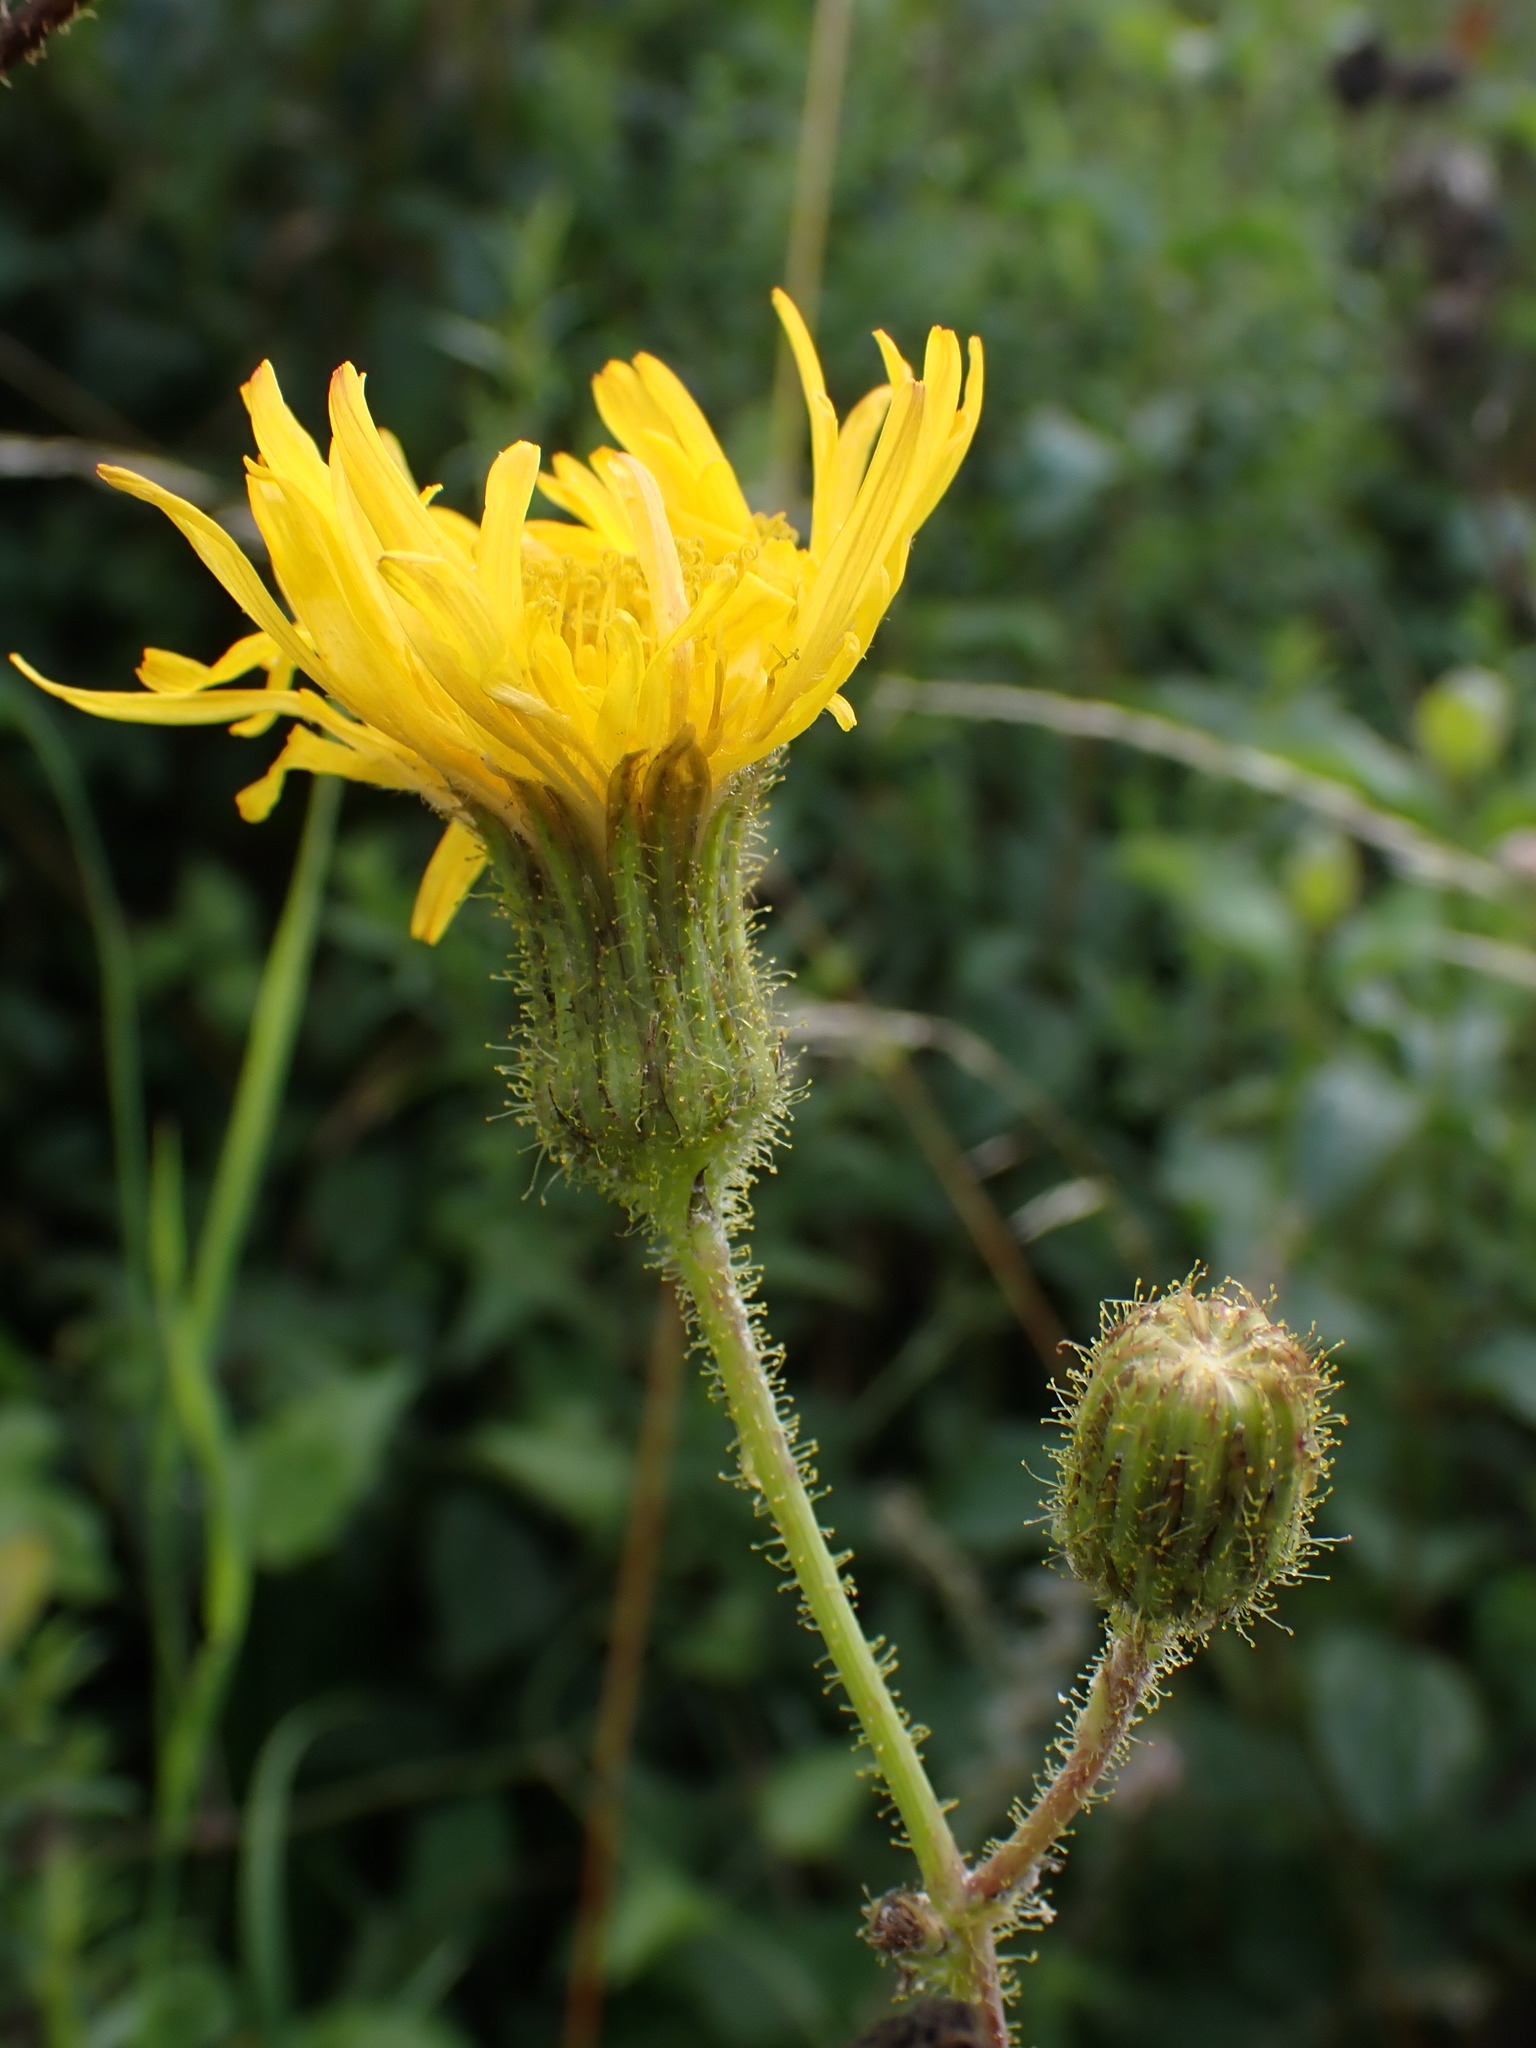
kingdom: Plantae
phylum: Tracheophyta
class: Magnoliopsida
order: Asterales
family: Asteraceae
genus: Sonchus
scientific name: Sonchus arvensis
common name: Perennial sow-thistle
